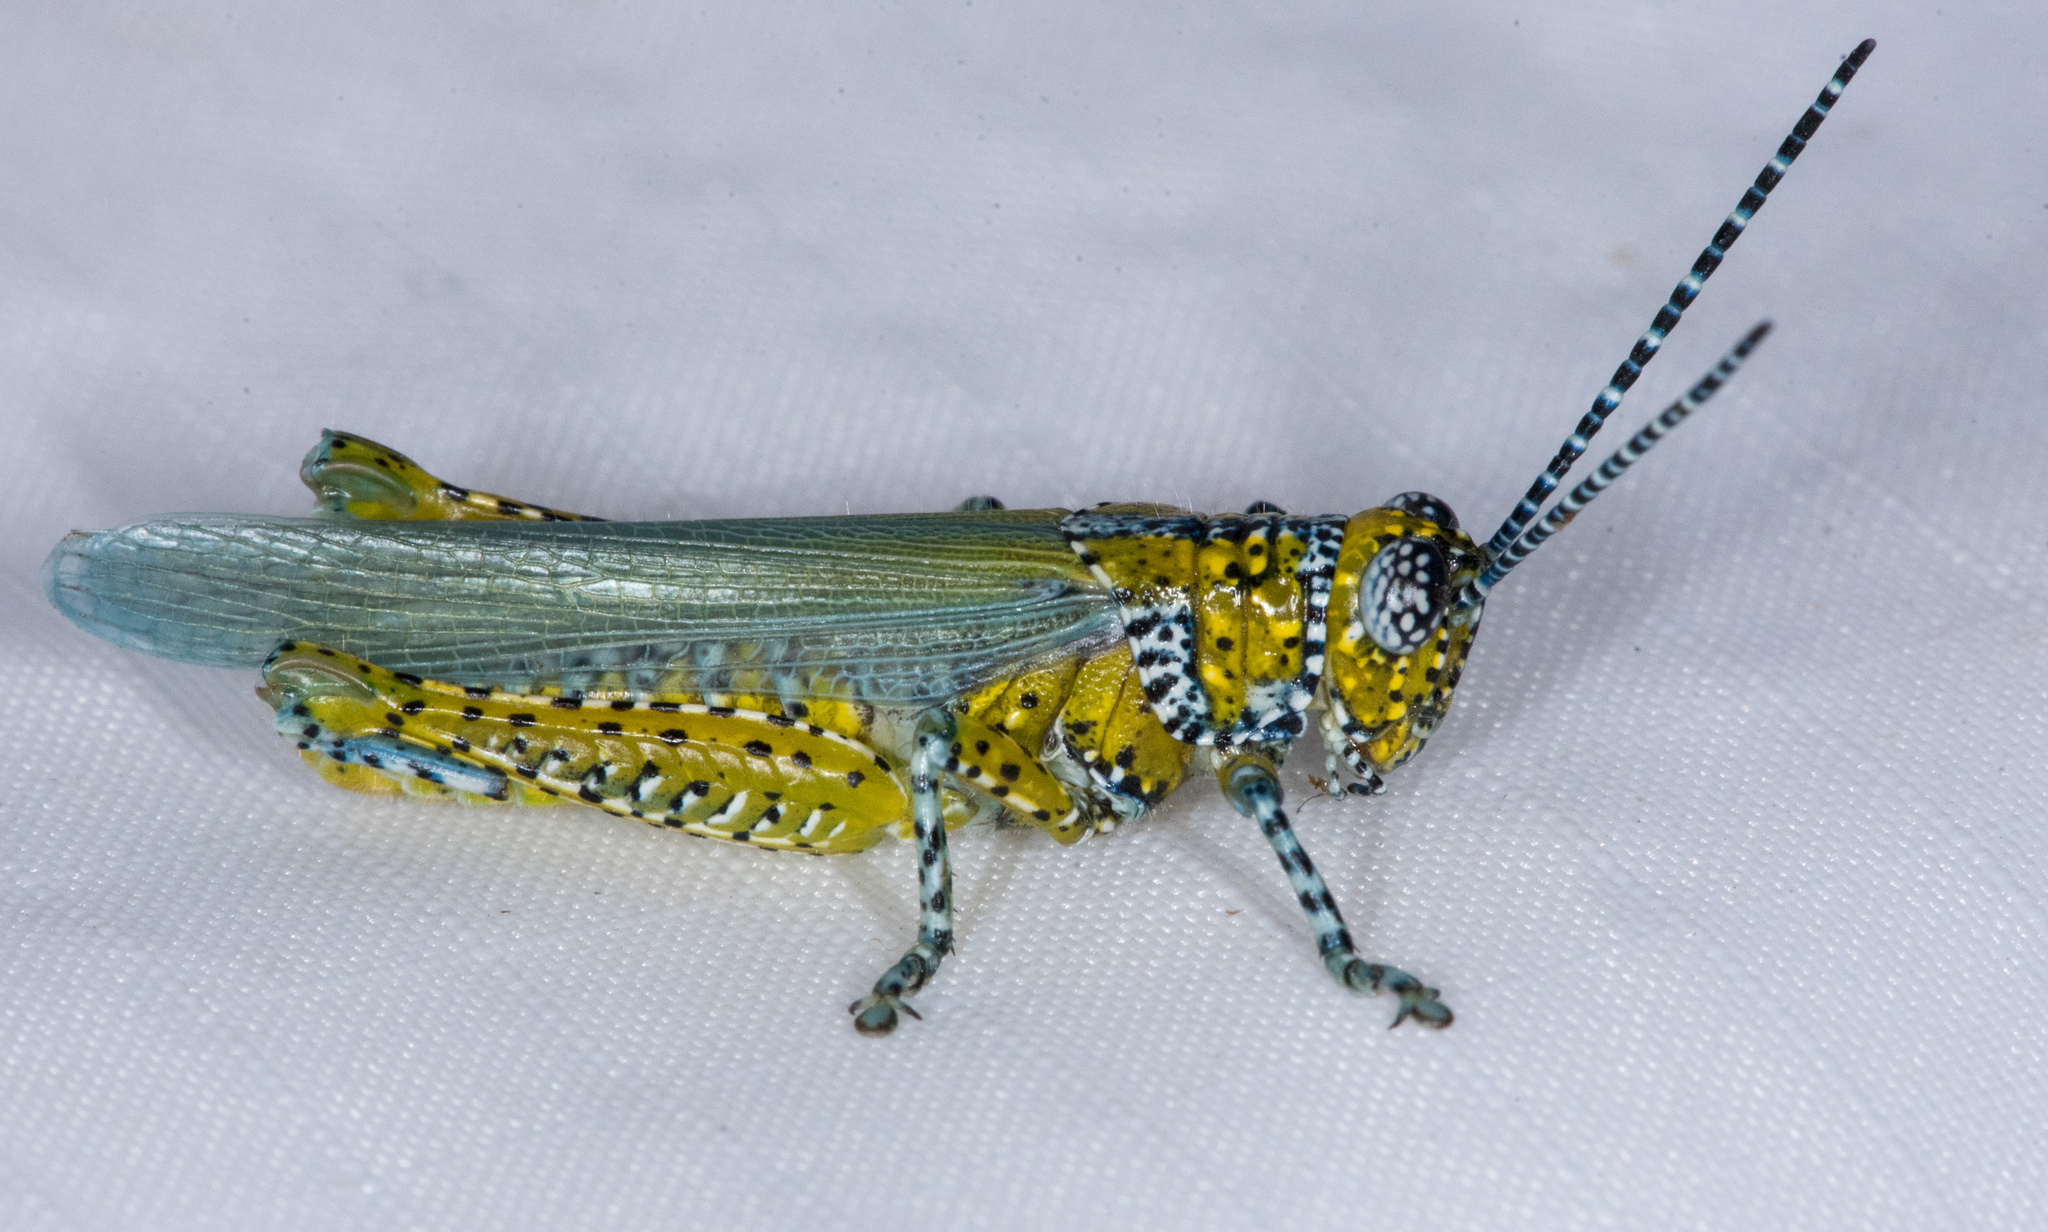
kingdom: Animalia
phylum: Arthropoda
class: Insecta
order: Orthoptera
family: Acrididae
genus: Poecilotettix
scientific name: Poecilotettix pantherinus
